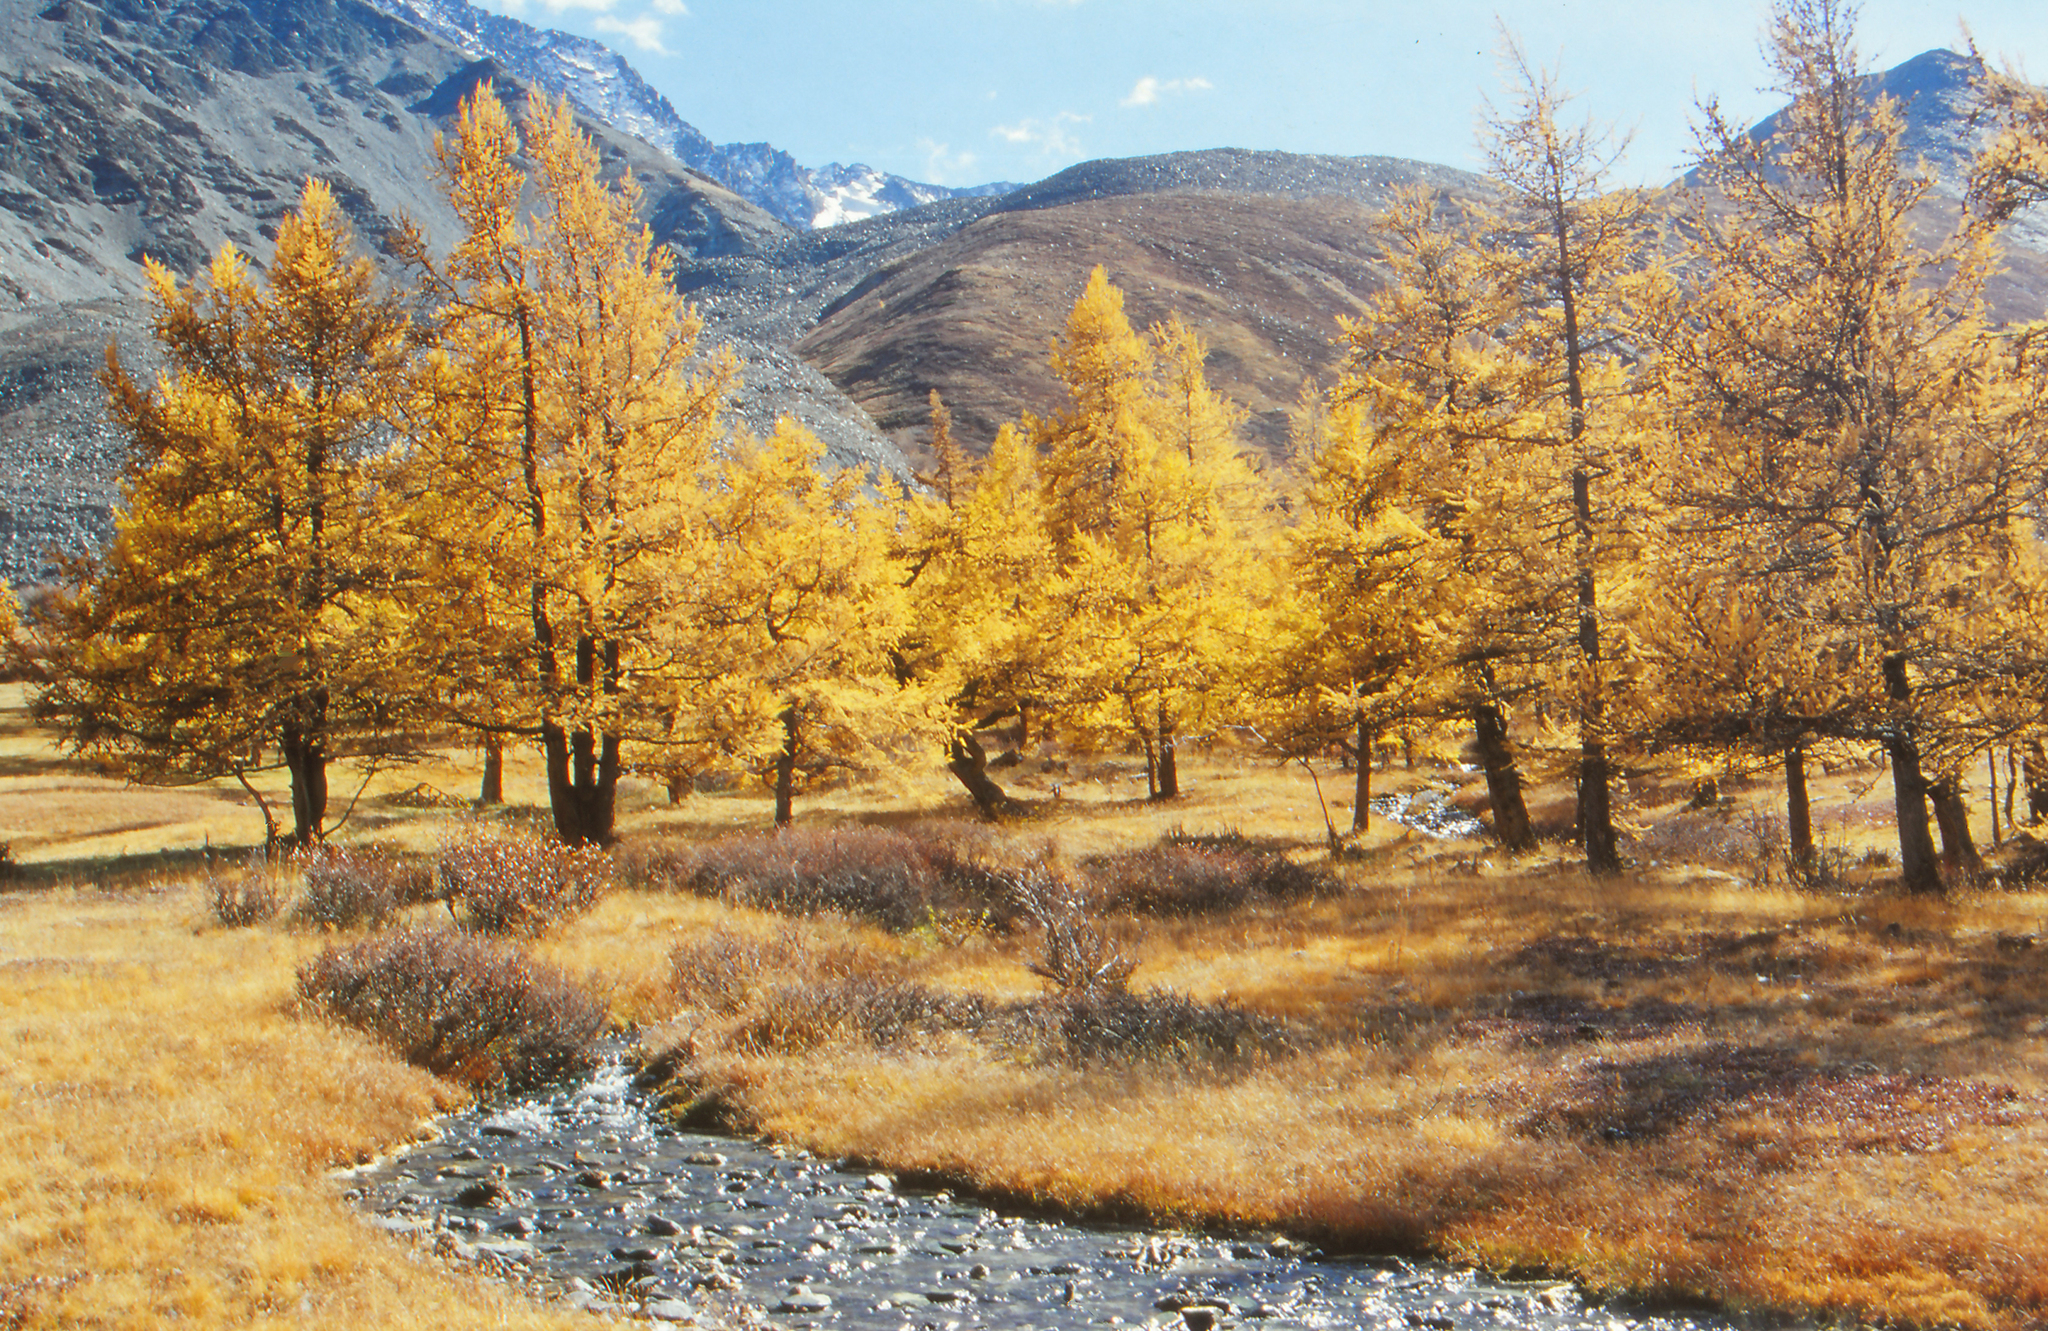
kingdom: Plantae
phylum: Tracheophyta
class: Pinopsida
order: Pinales
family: Pinaceae
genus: Larix
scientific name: Larix sibirica
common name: Siberian larch
